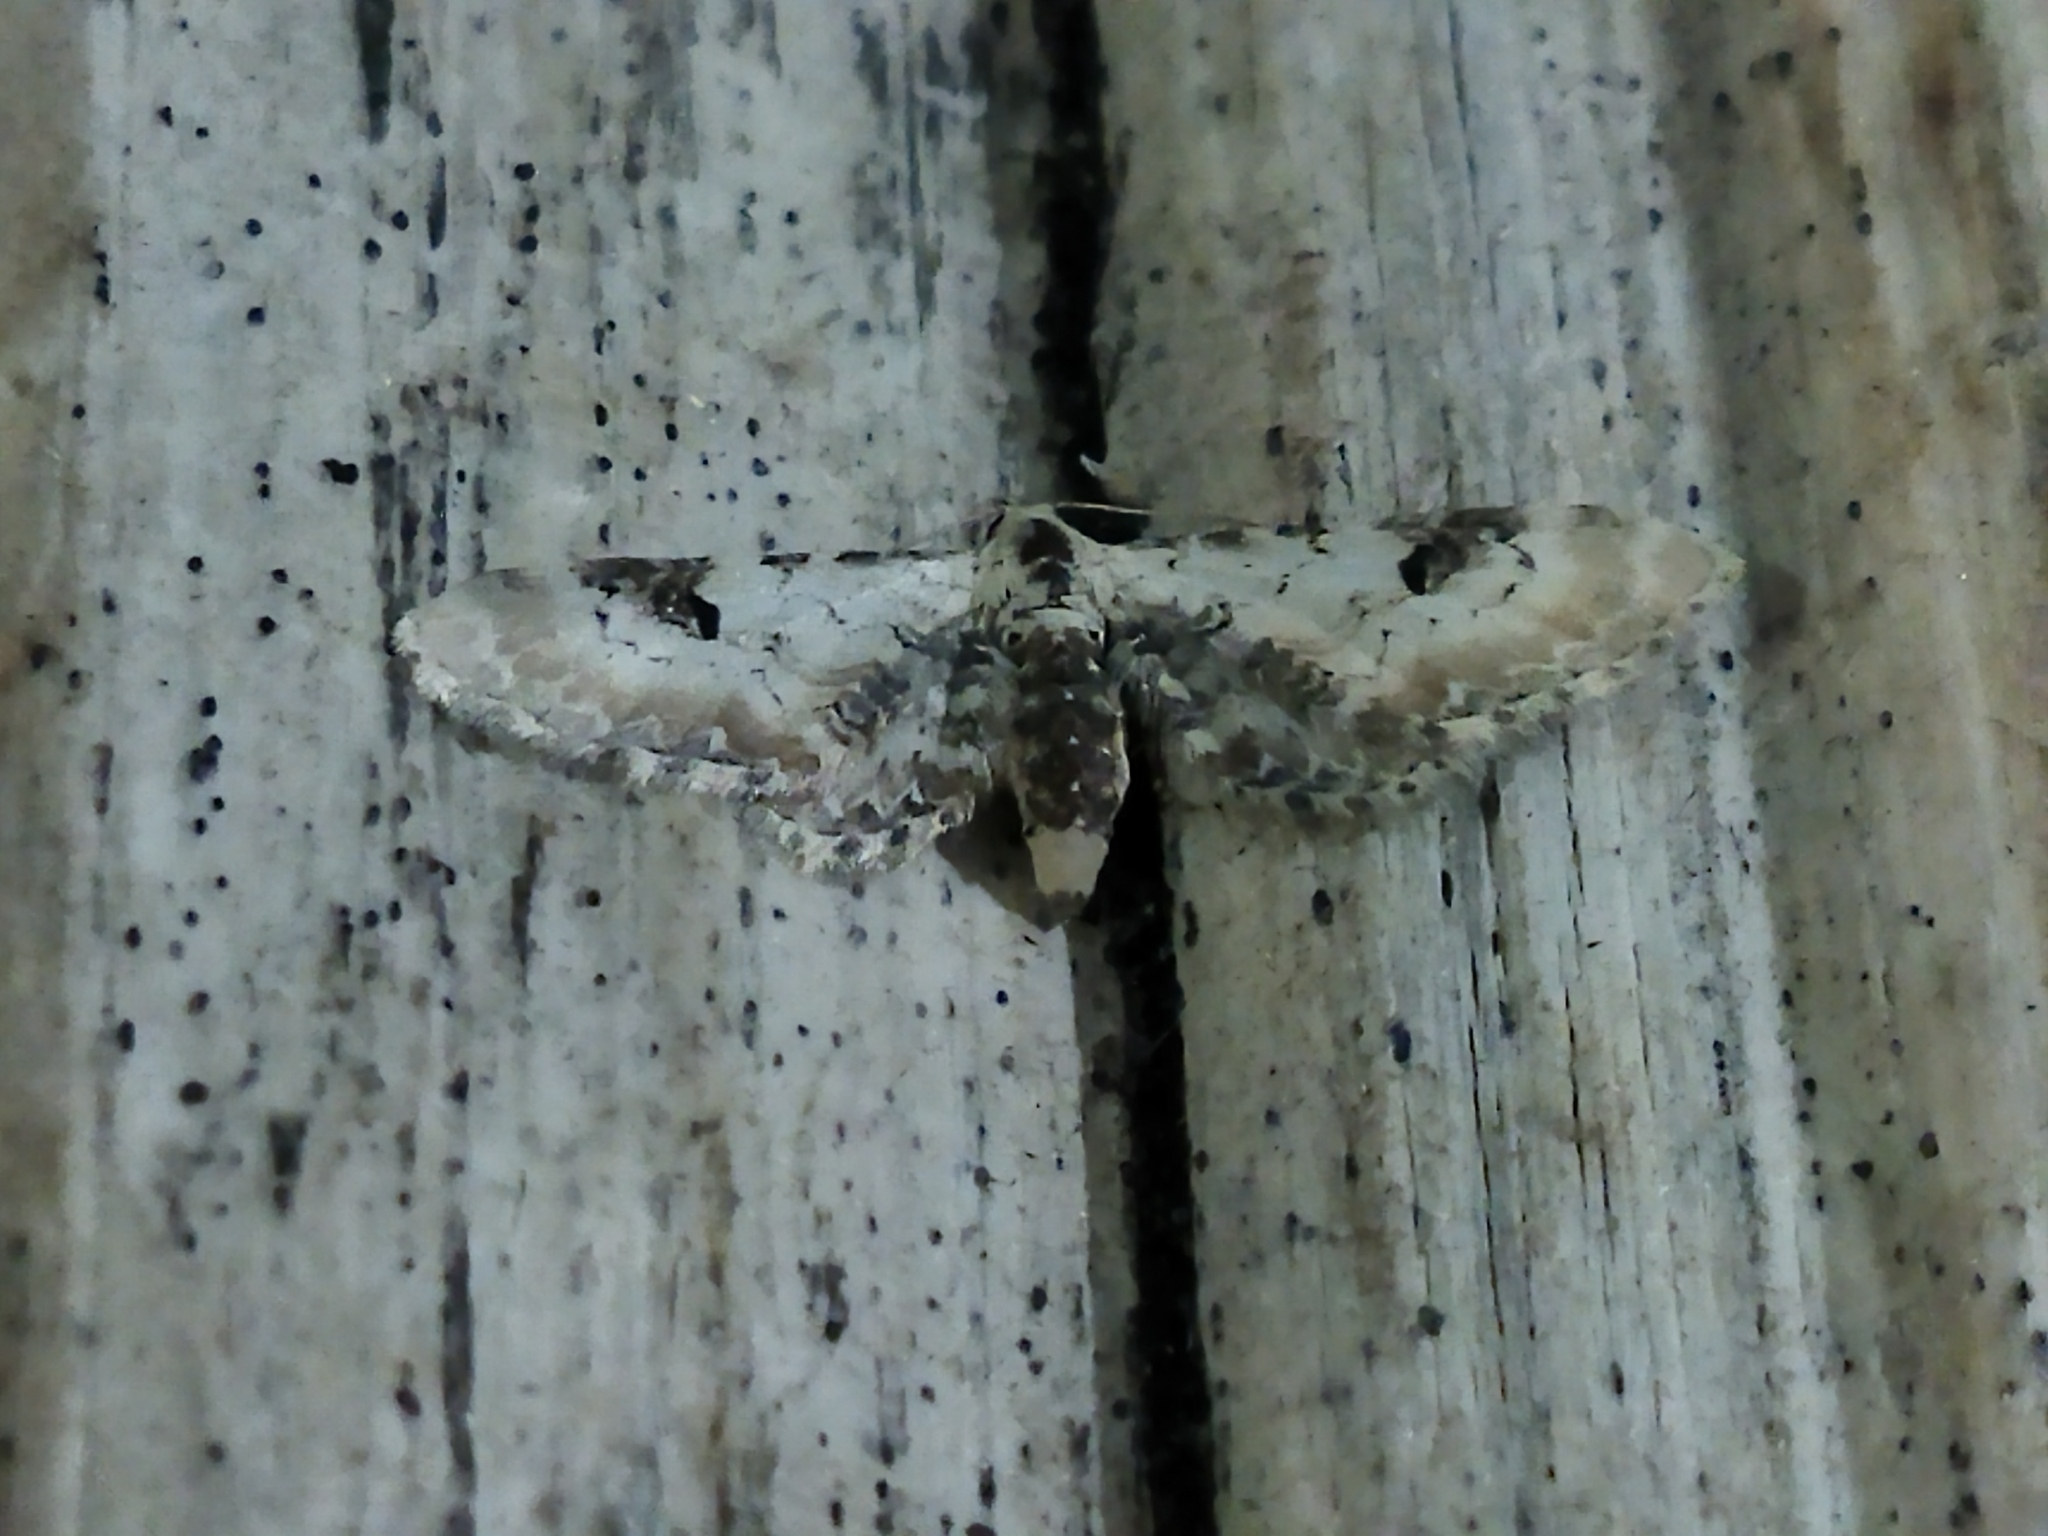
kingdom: Animalia
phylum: Arthropoda
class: Insecta
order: Lepidoptera
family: Geometridae
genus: Eupithecia
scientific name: Eupithecia centaureata
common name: Lime-speck pug
